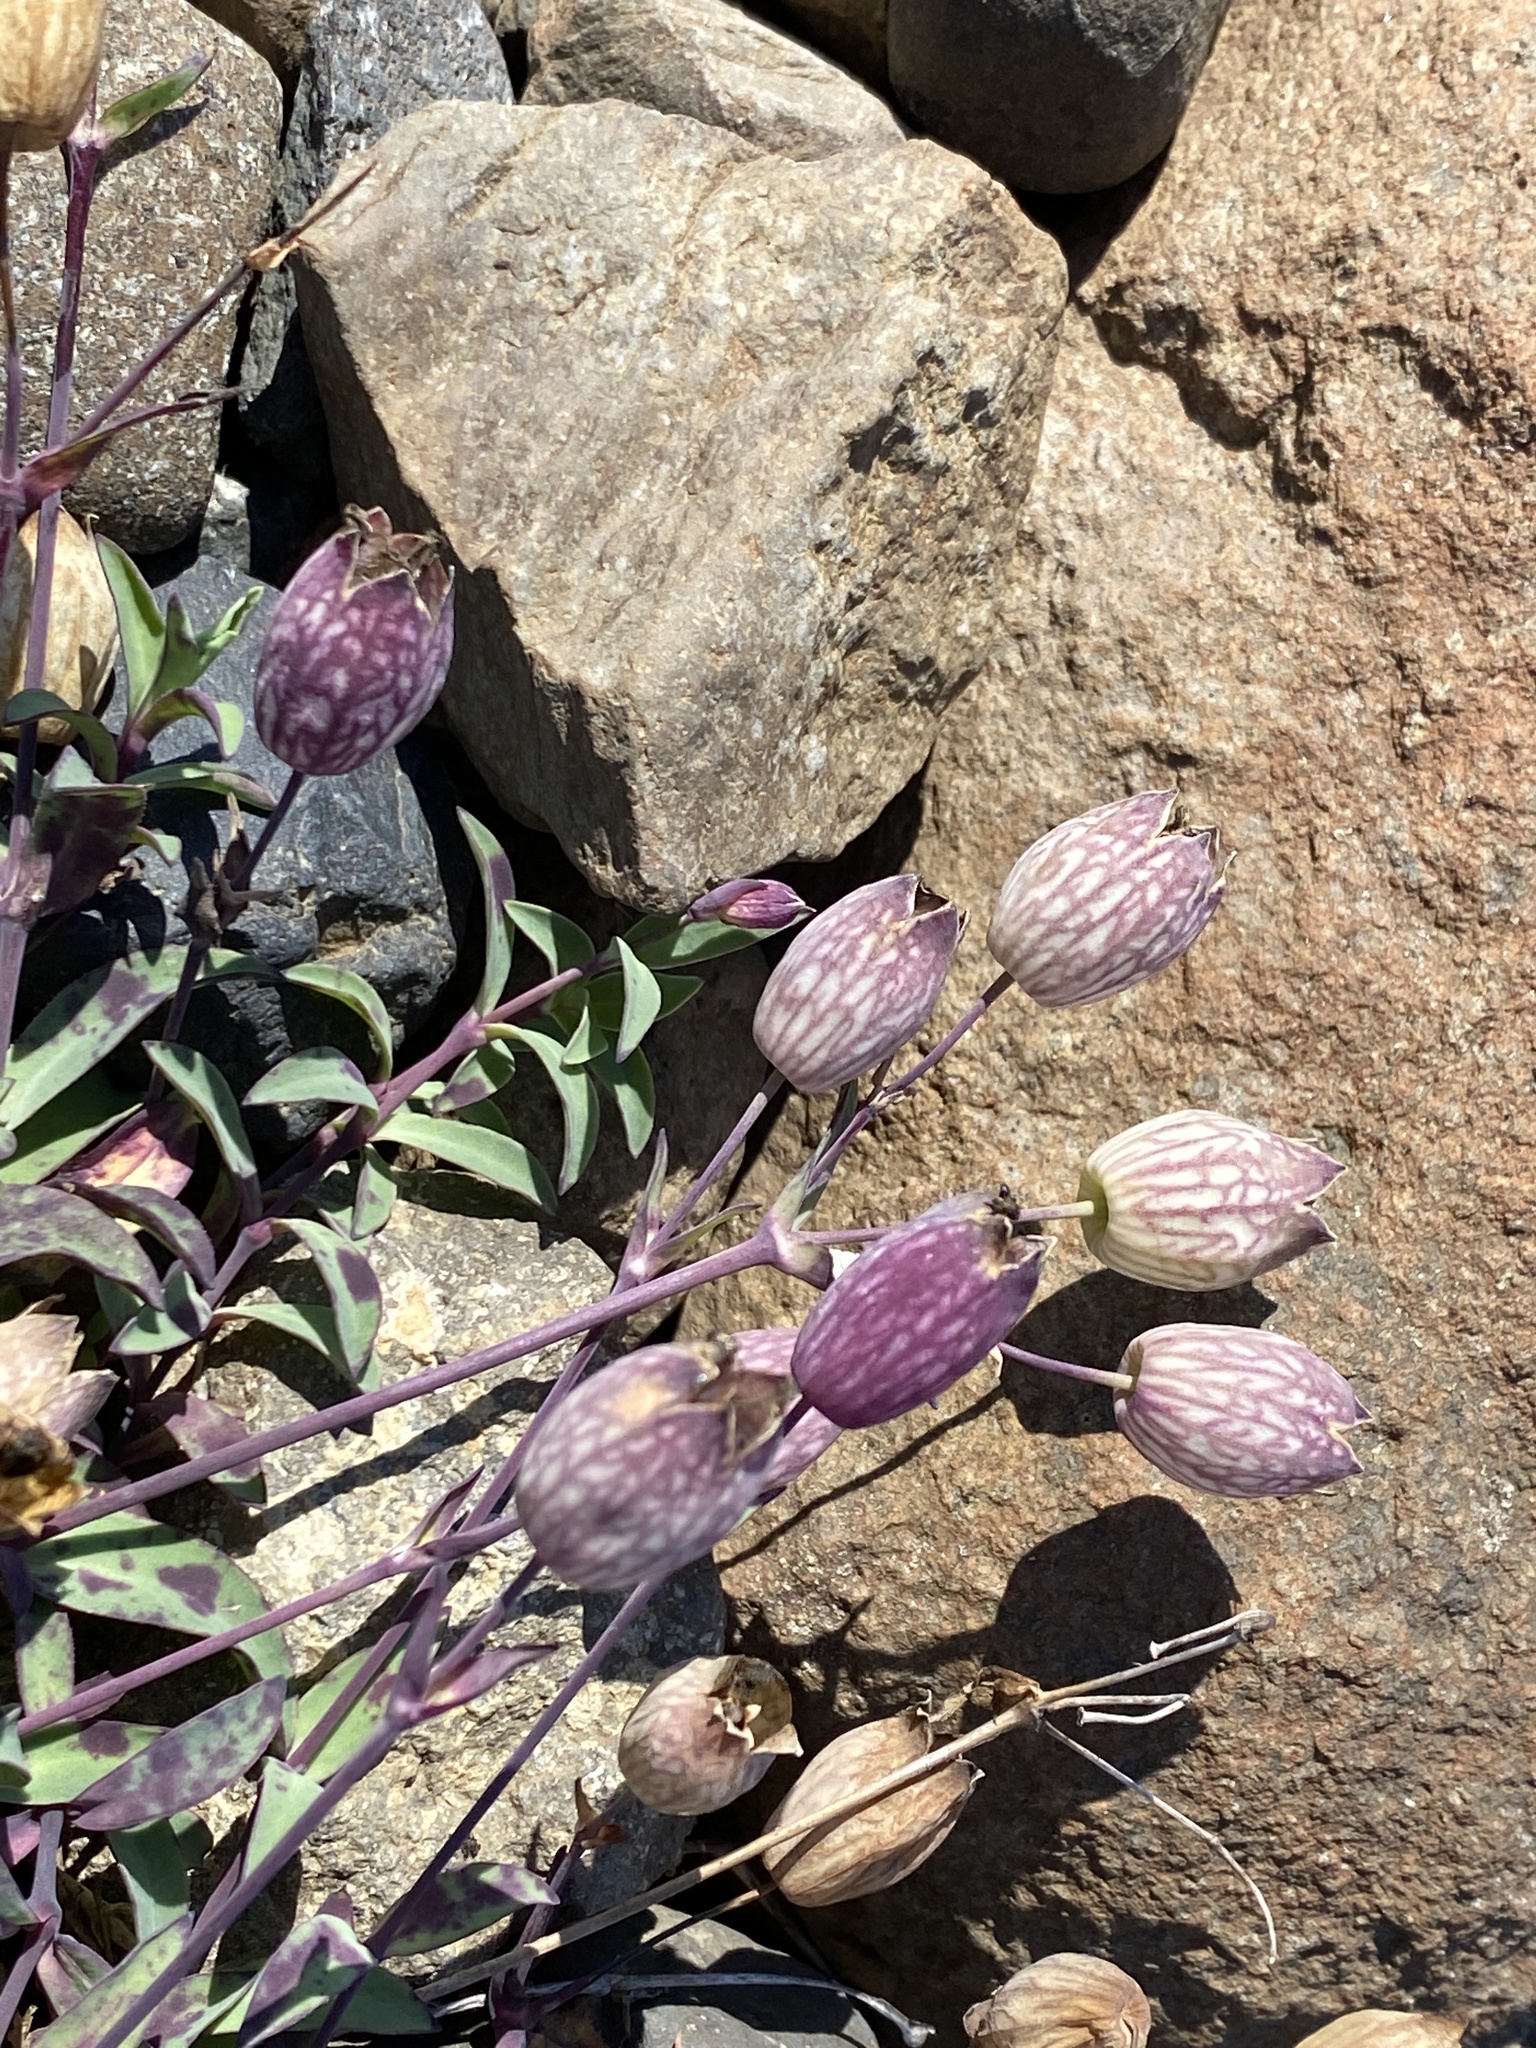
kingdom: Plantae
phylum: Tracheophyta
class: Magnoliopsida
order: Caryophyllales
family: Caryophyllaceae
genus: Silene
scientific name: Silene uniflora
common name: Sea campion
